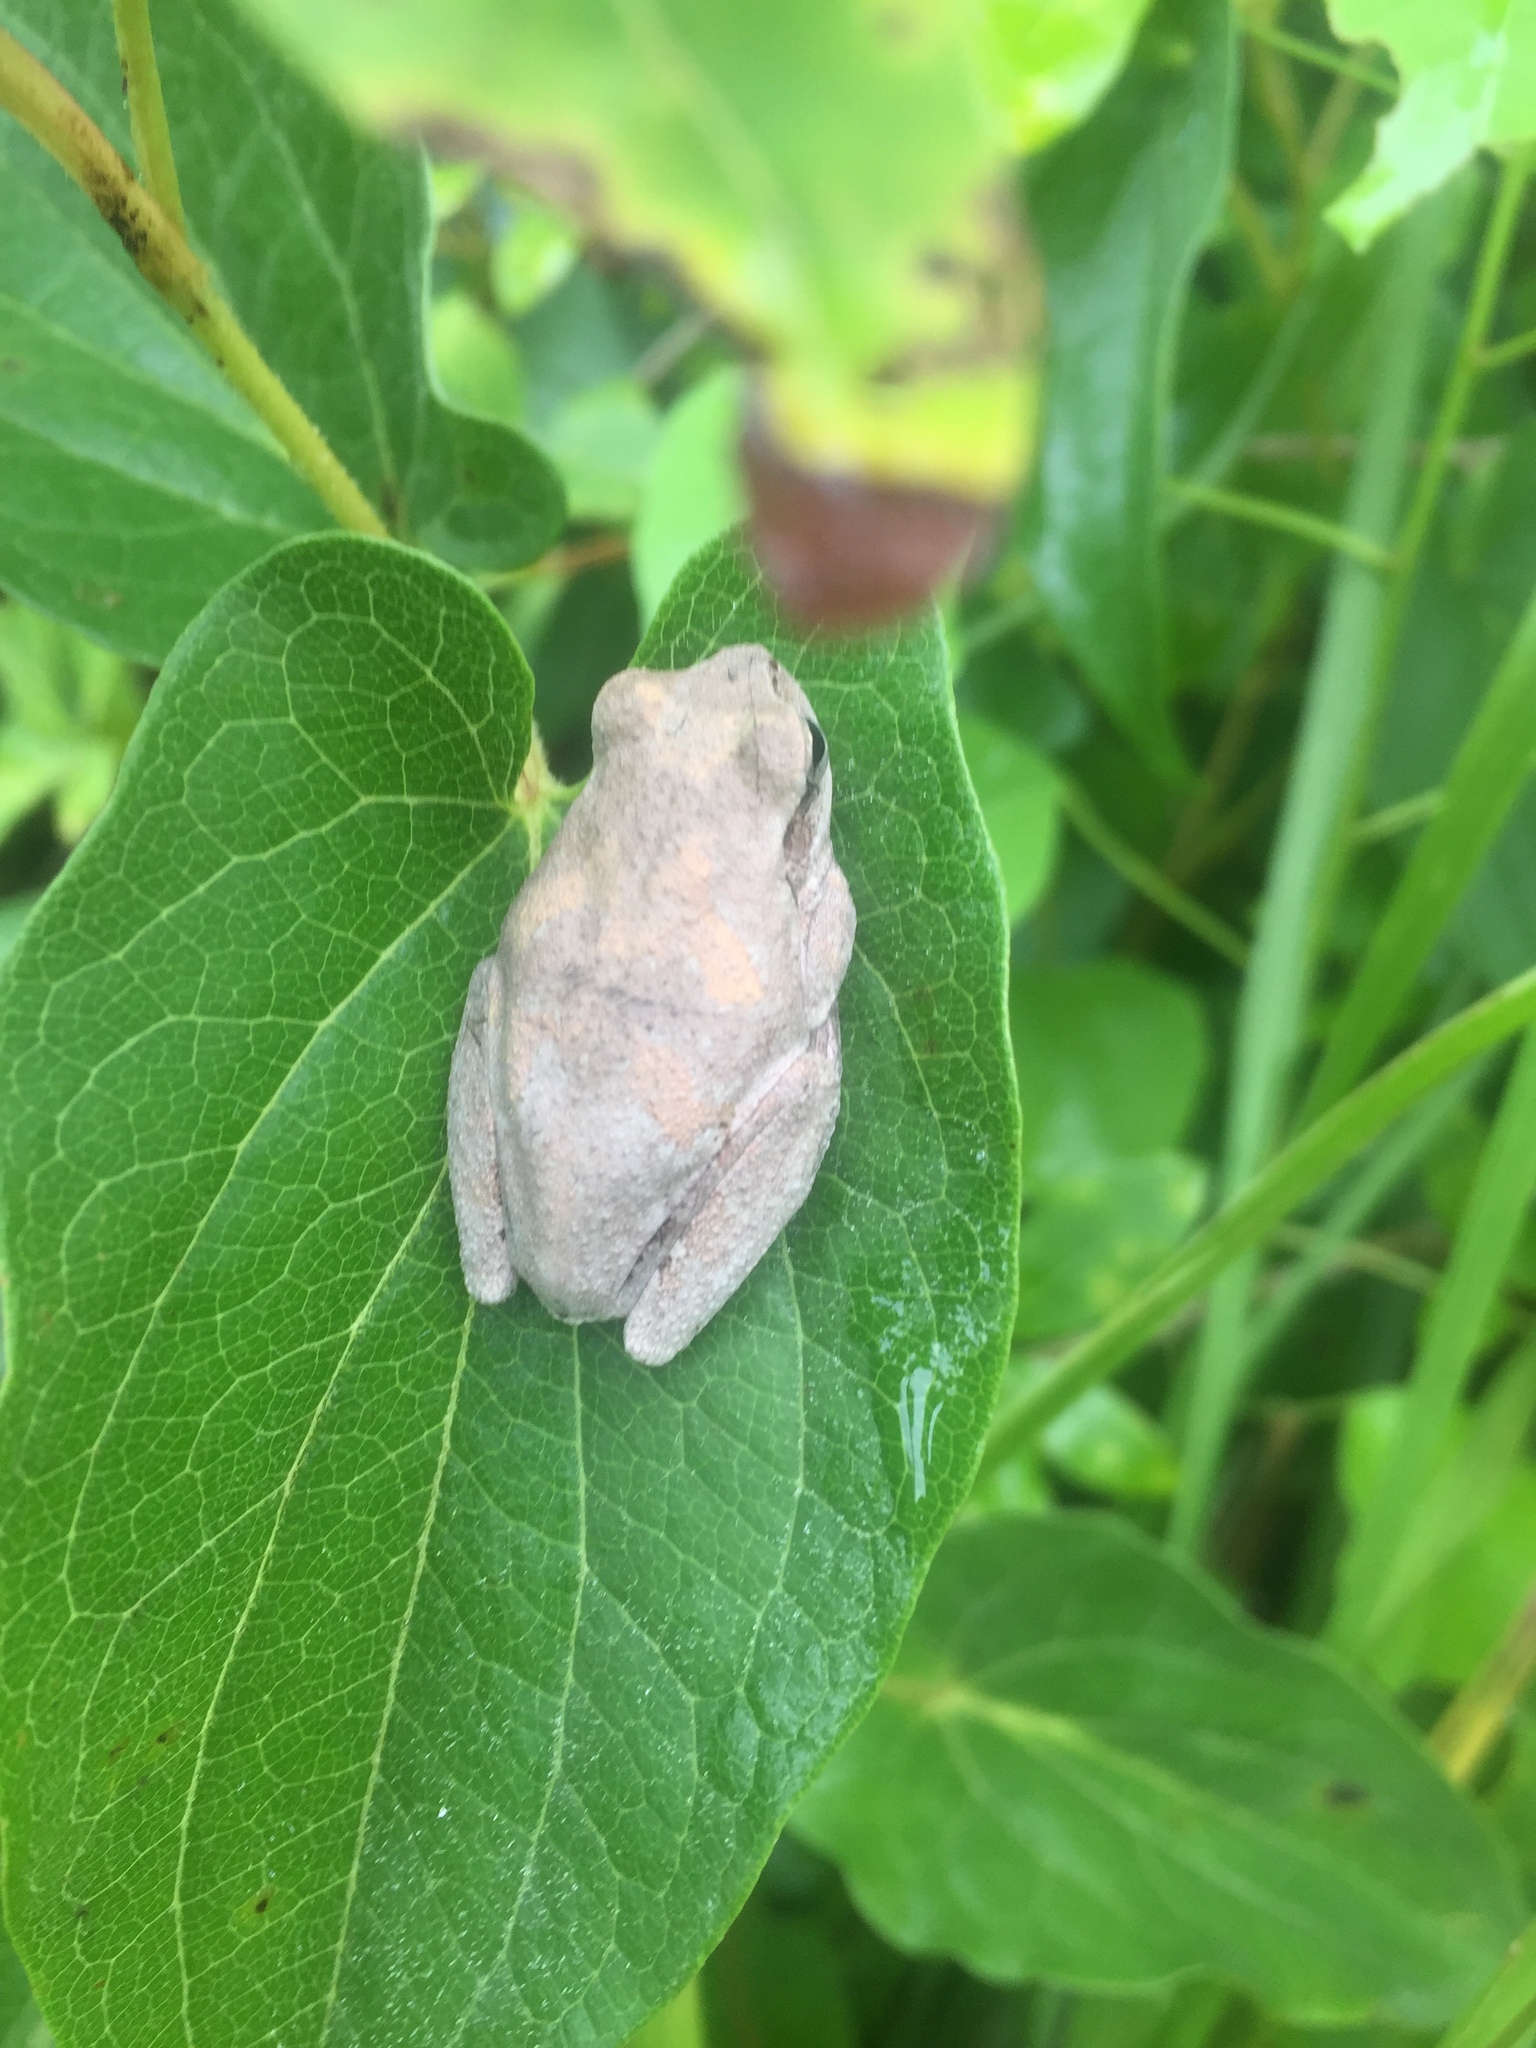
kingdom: Animalia
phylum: Chordata
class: Amphibia
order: Anura
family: Hylidae
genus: Hyla
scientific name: Hyla femoralis
